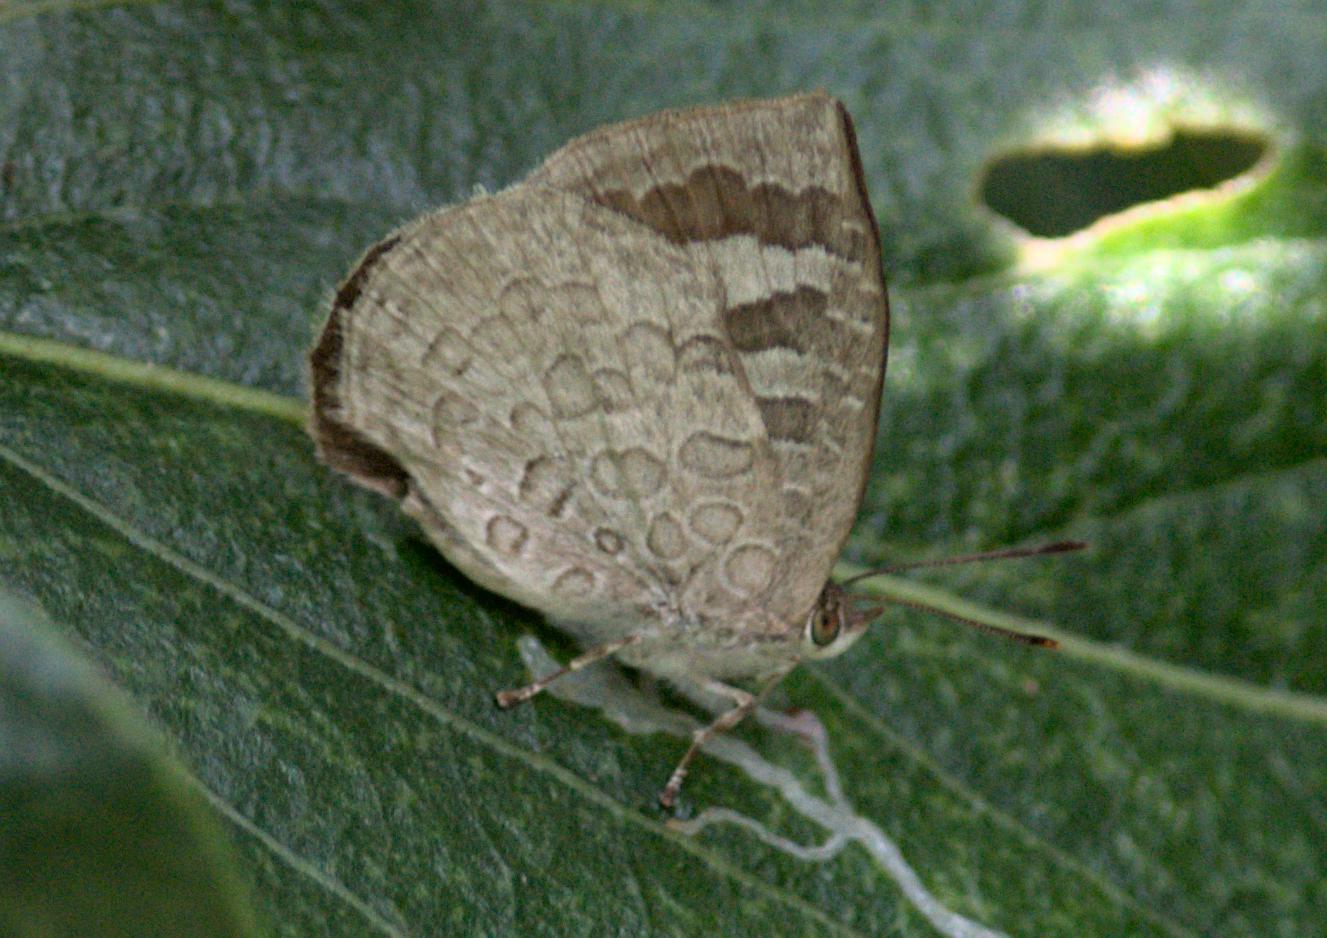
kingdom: Animalia
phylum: Arthropoda
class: Insecta
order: Lepidoptera
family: Lycaenidae
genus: Arhopala
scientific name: Arhopala ganesa
